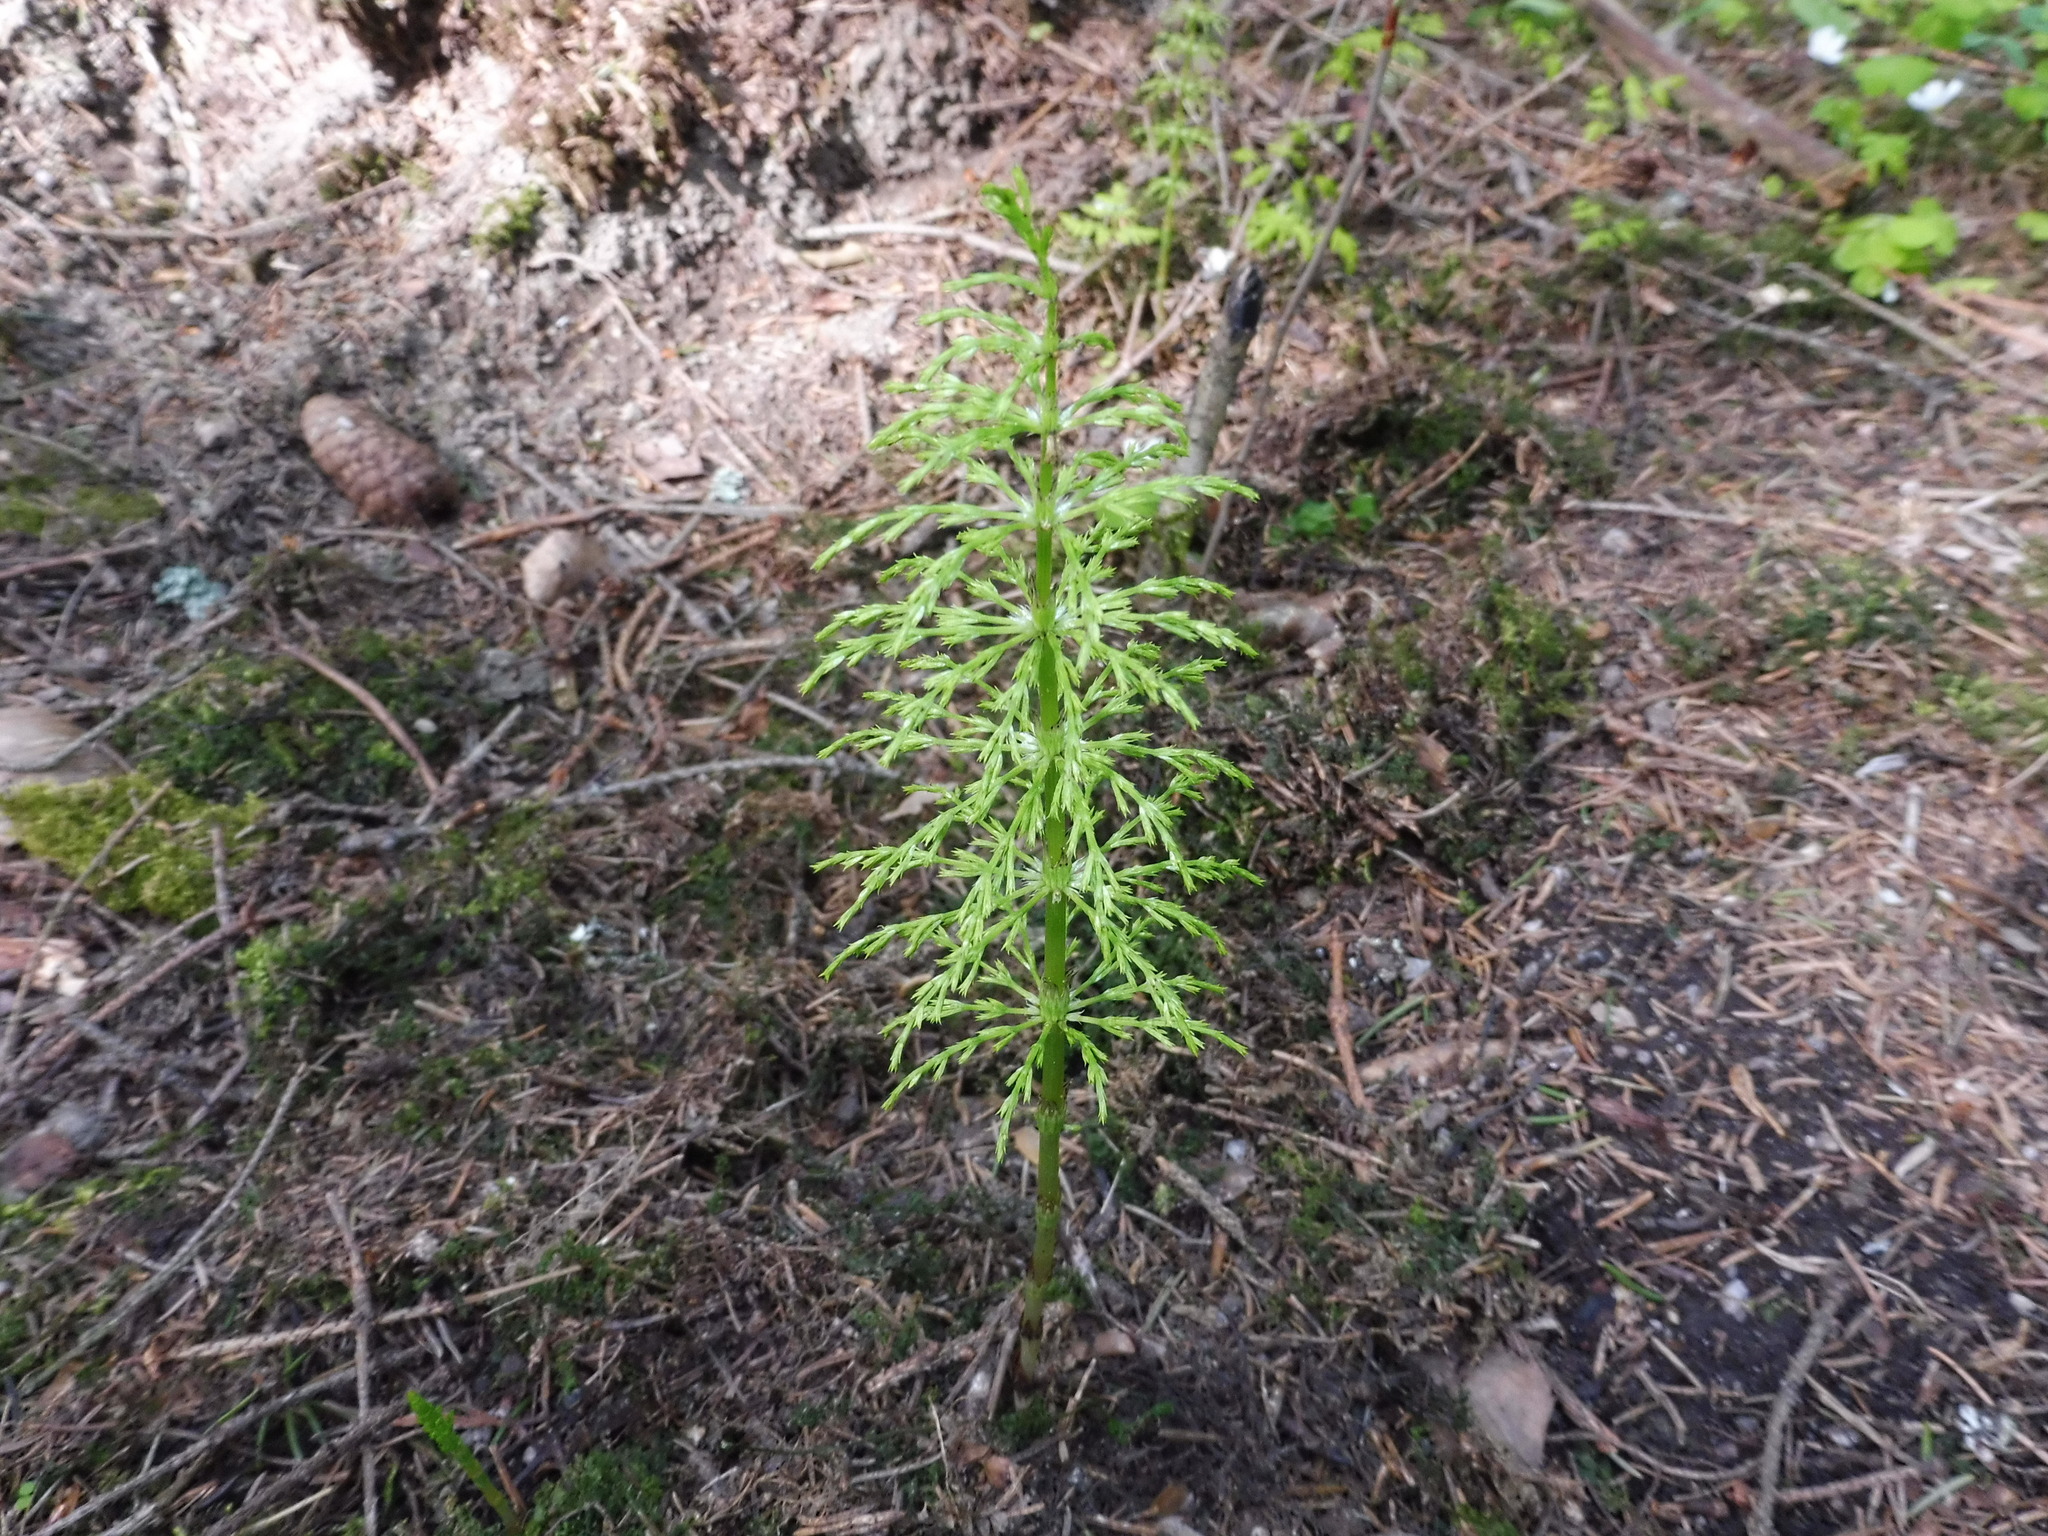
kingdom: Plantae
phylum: Tracheophyta
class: Polypodiopsida
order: Equisetales
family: Equisetaceae
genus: Equisetum
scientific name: Equisetum sylvaticum
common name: Wood horsetail
